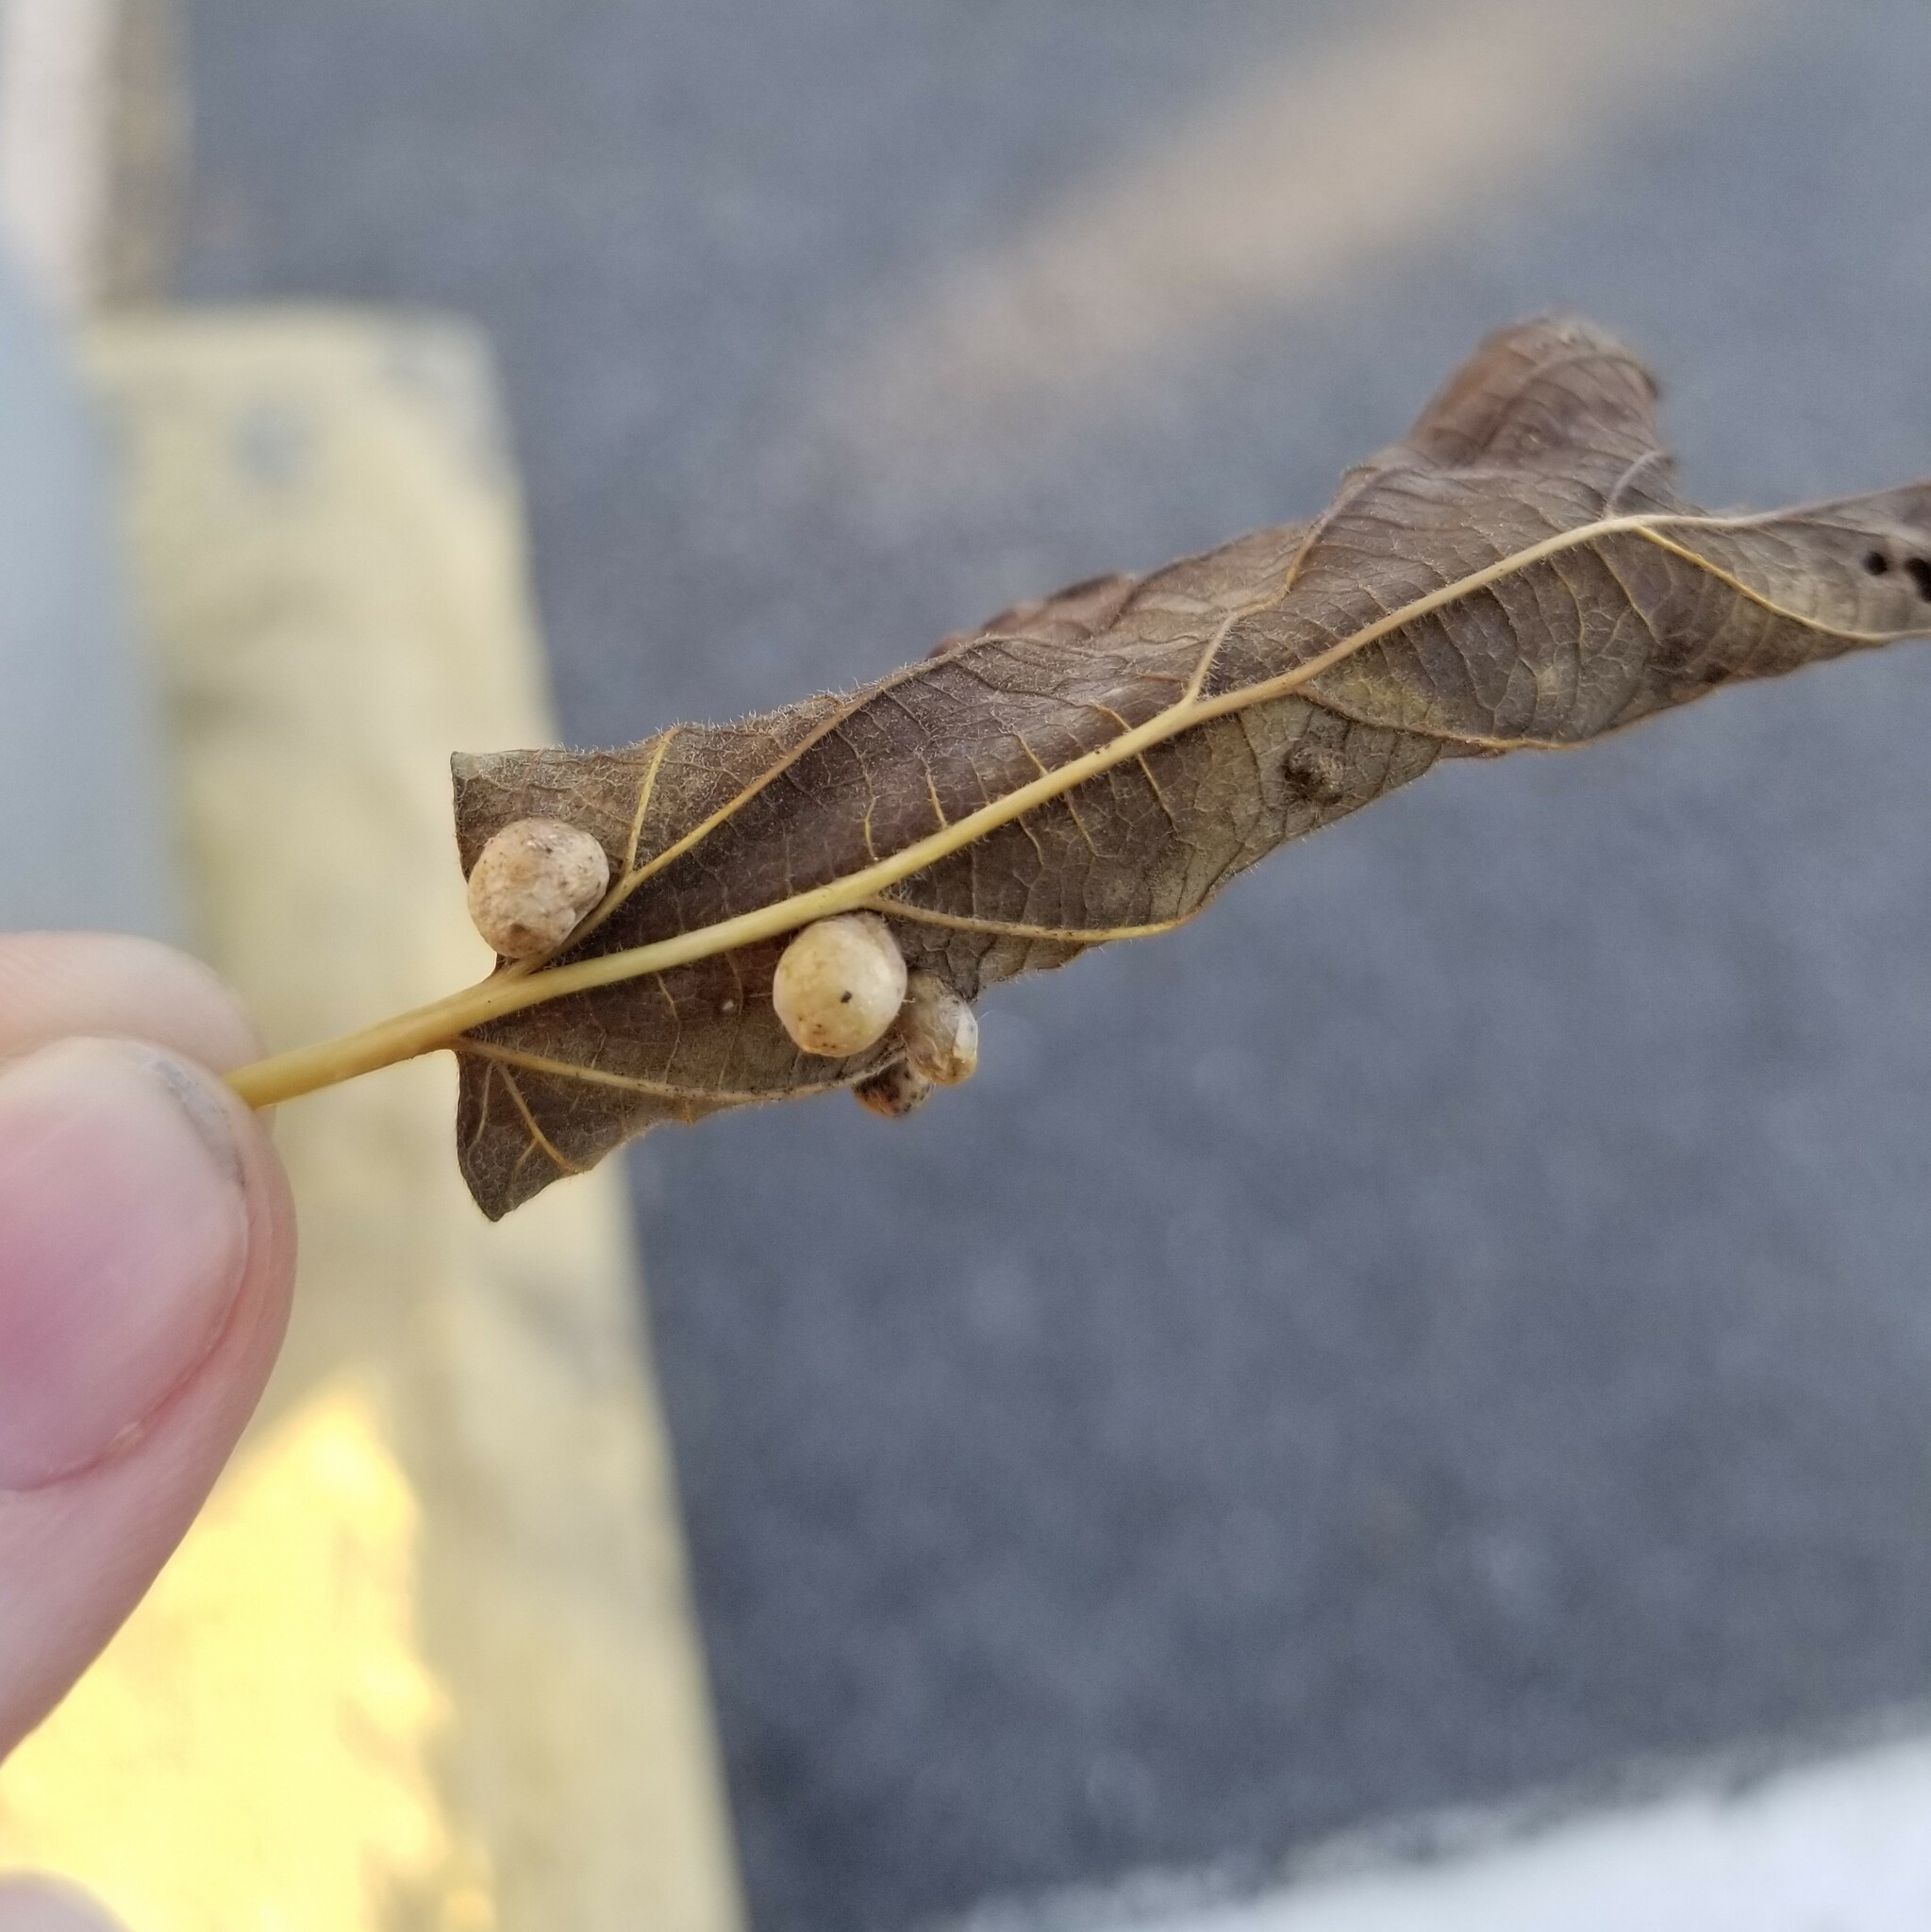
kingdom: Animalia
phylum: Arthropoda
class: Insecta
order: Hemiptera
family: Aphalaridae
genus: Pachypsylla
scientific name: Pachypsylla celtidismamma
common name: Hackberry nipplegall psyllid
